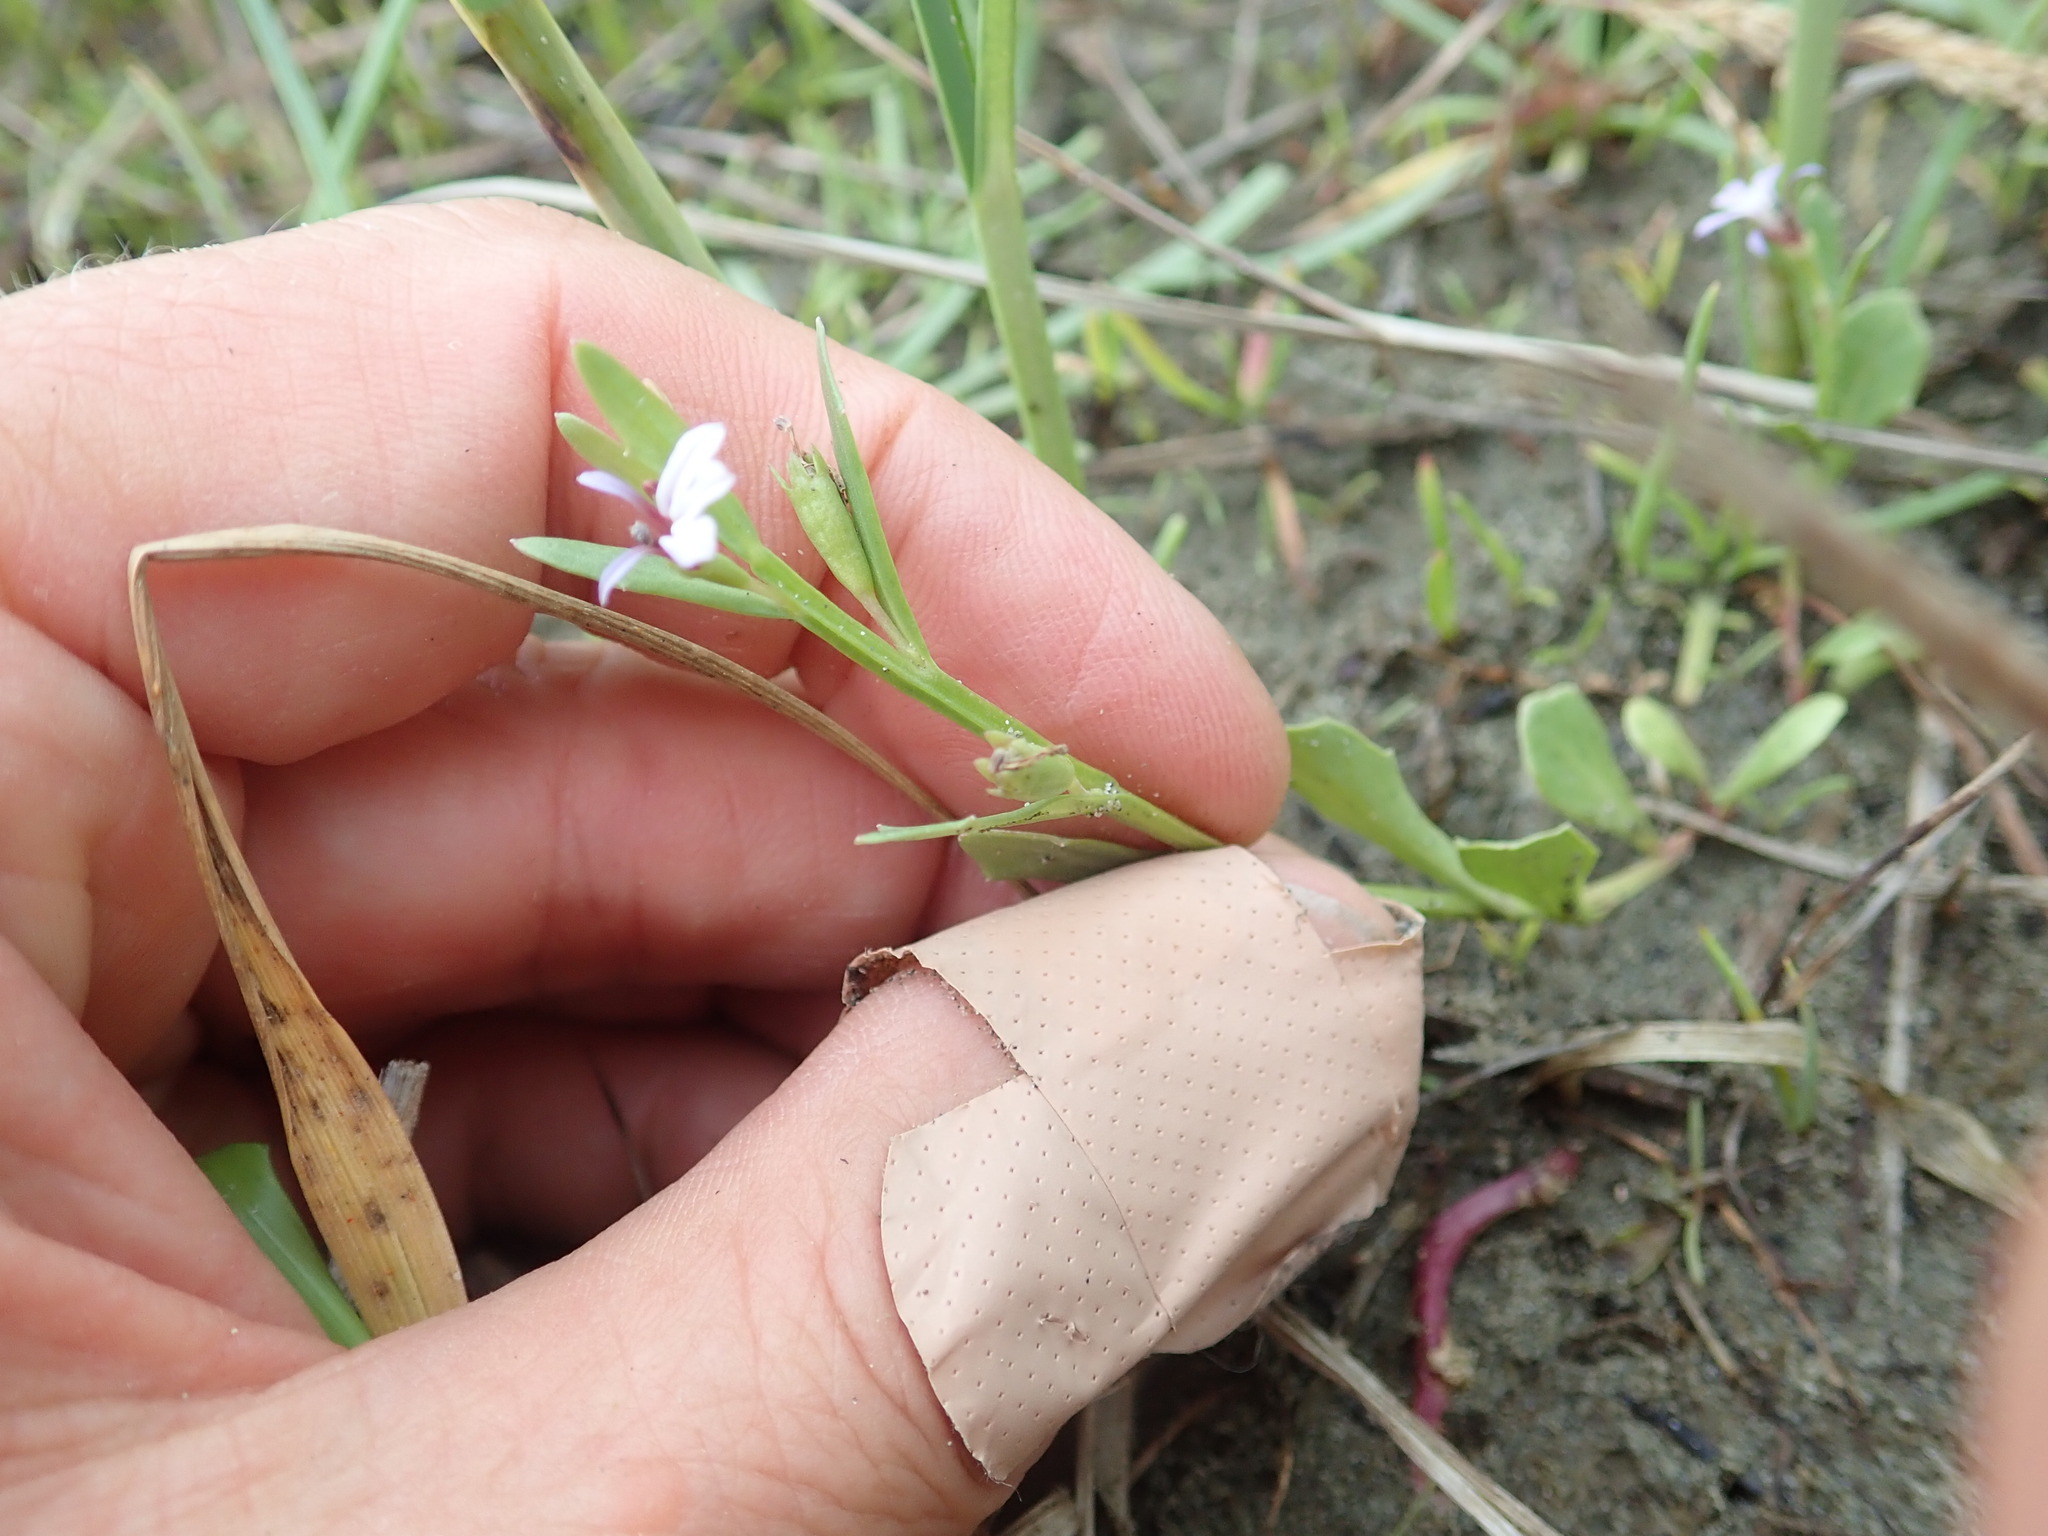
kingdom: Plantae
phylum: Tracheophyta
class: Magnoliopsida
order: Asterales
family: Campanulaceae
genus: Lobelia
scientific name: Lobelia anceps
